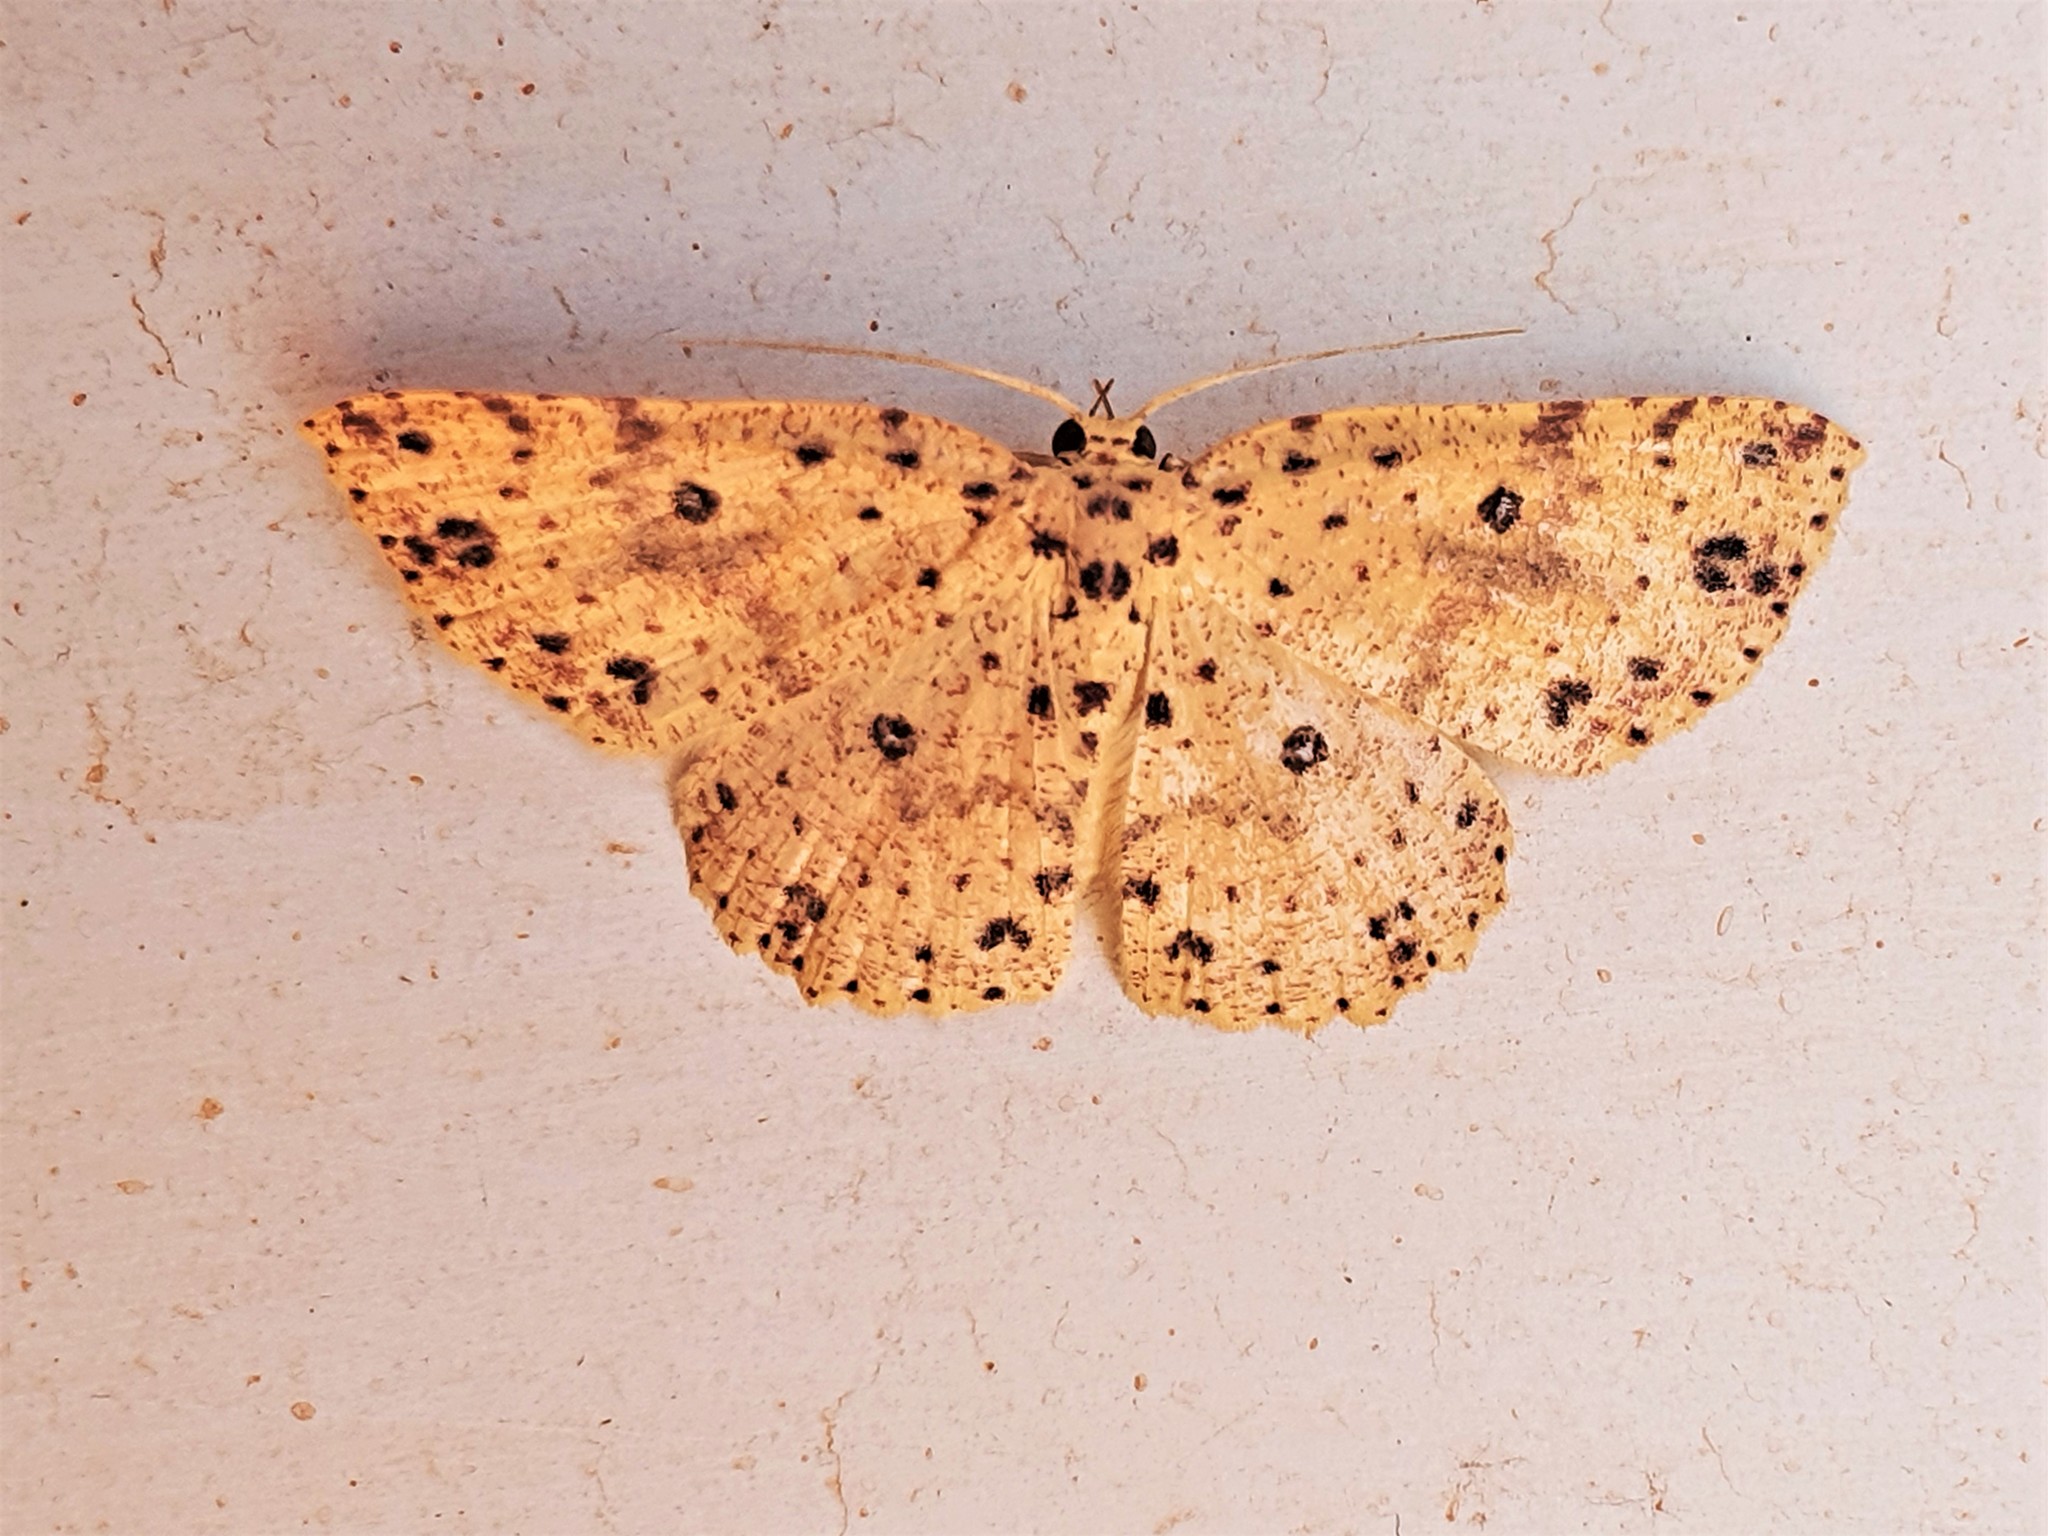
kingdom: Animalia
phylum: Arthropoda
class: Insecta
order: Lepidoptera
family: Geometridae
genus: Cyclophora
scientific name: Cyclophora
